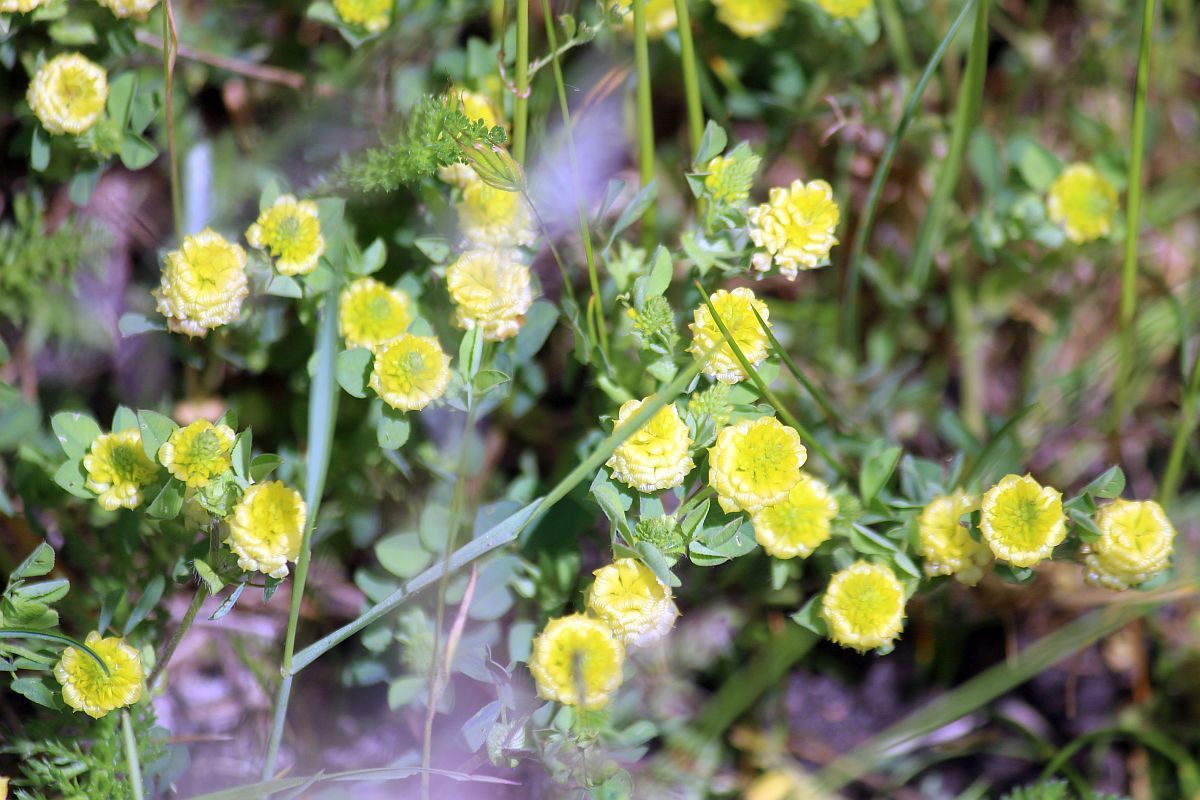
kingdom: Plantae
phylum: Tracheophyta
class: Magnoliopsida
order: Fabales
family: Fabaceae
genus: Trifolium
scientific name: Trifolium campestre
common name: Field clover
